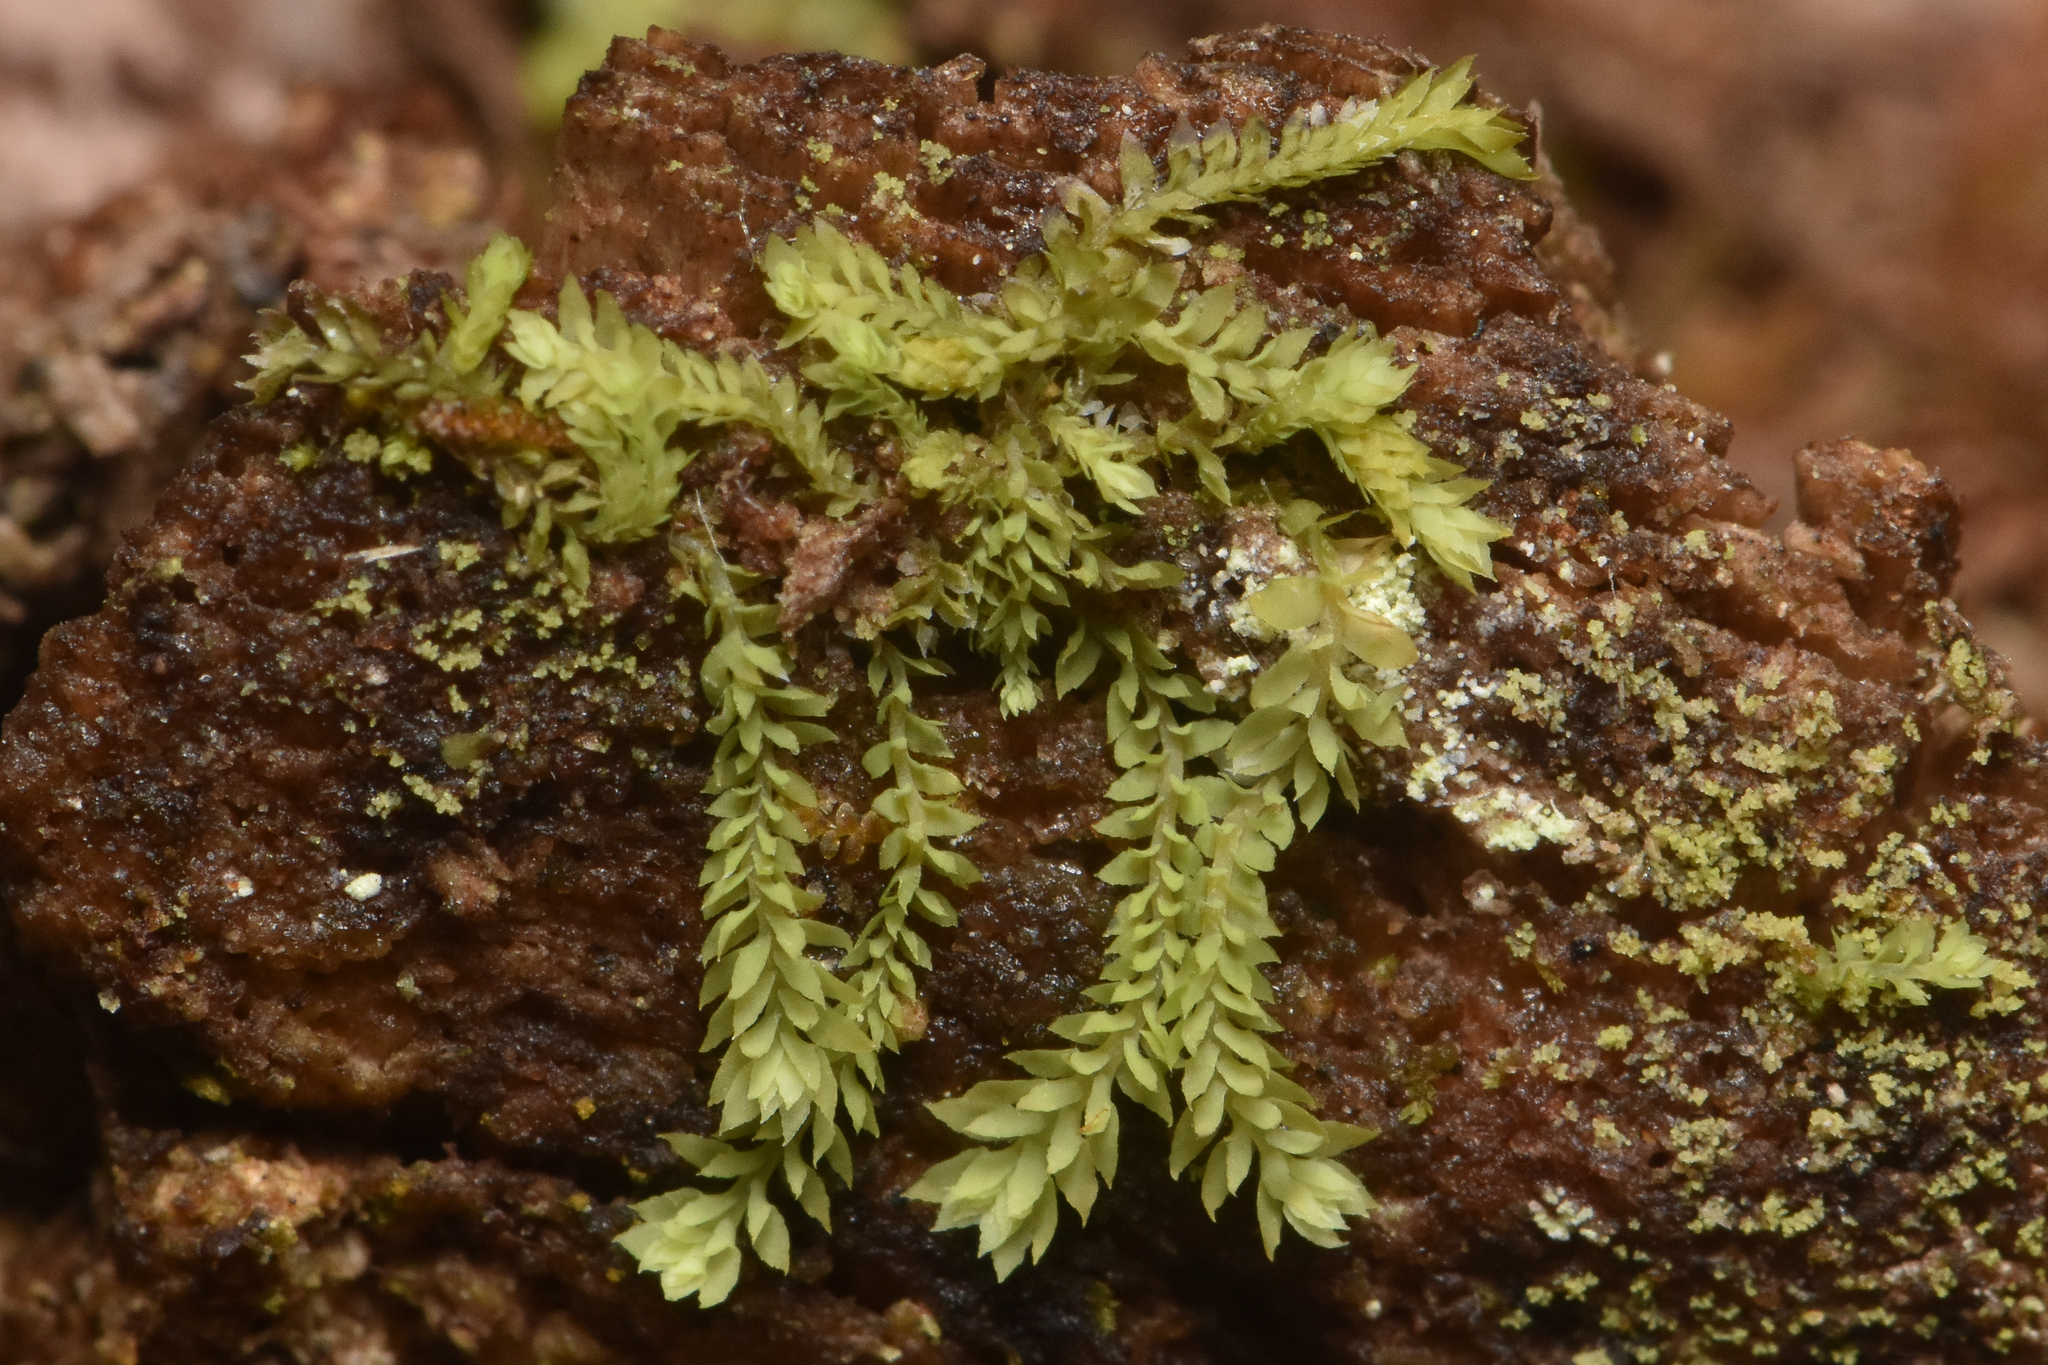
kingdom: Plantae
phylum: Marchantiophyta
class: Jungermanniopsida
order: Jungermanniales
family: Scapaniaceae
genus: Douinia
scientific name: Douinia ovata
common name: Waxy earwort
